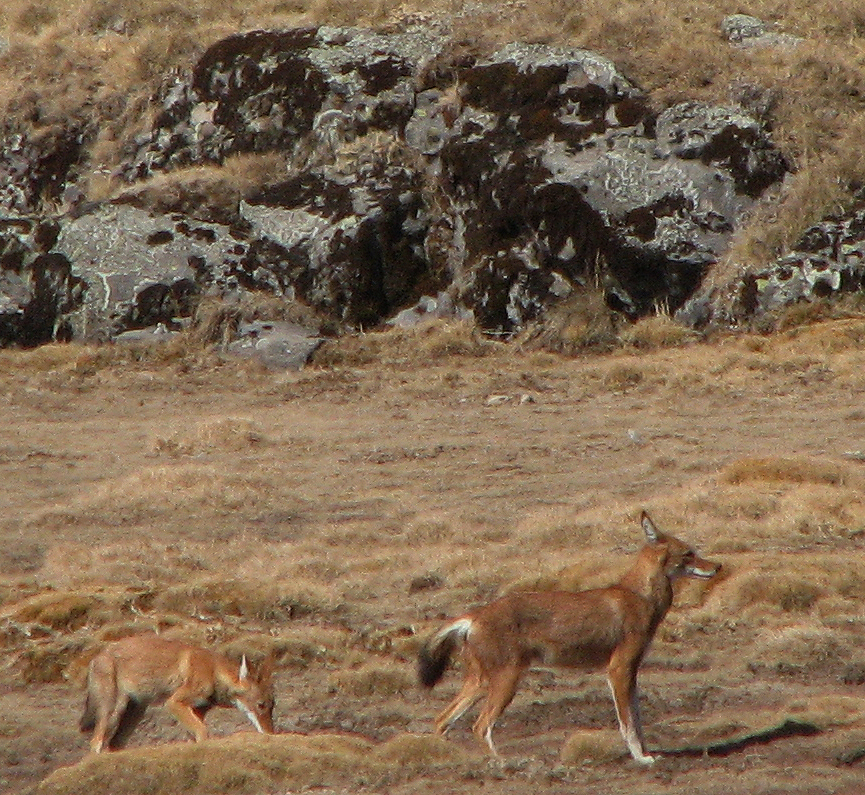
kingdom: Animalia
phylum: Chordata
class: Mammalia
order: Carnivora
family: Canidae
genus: Canis
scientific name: Canis simensis
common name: Ethiopian wolf
